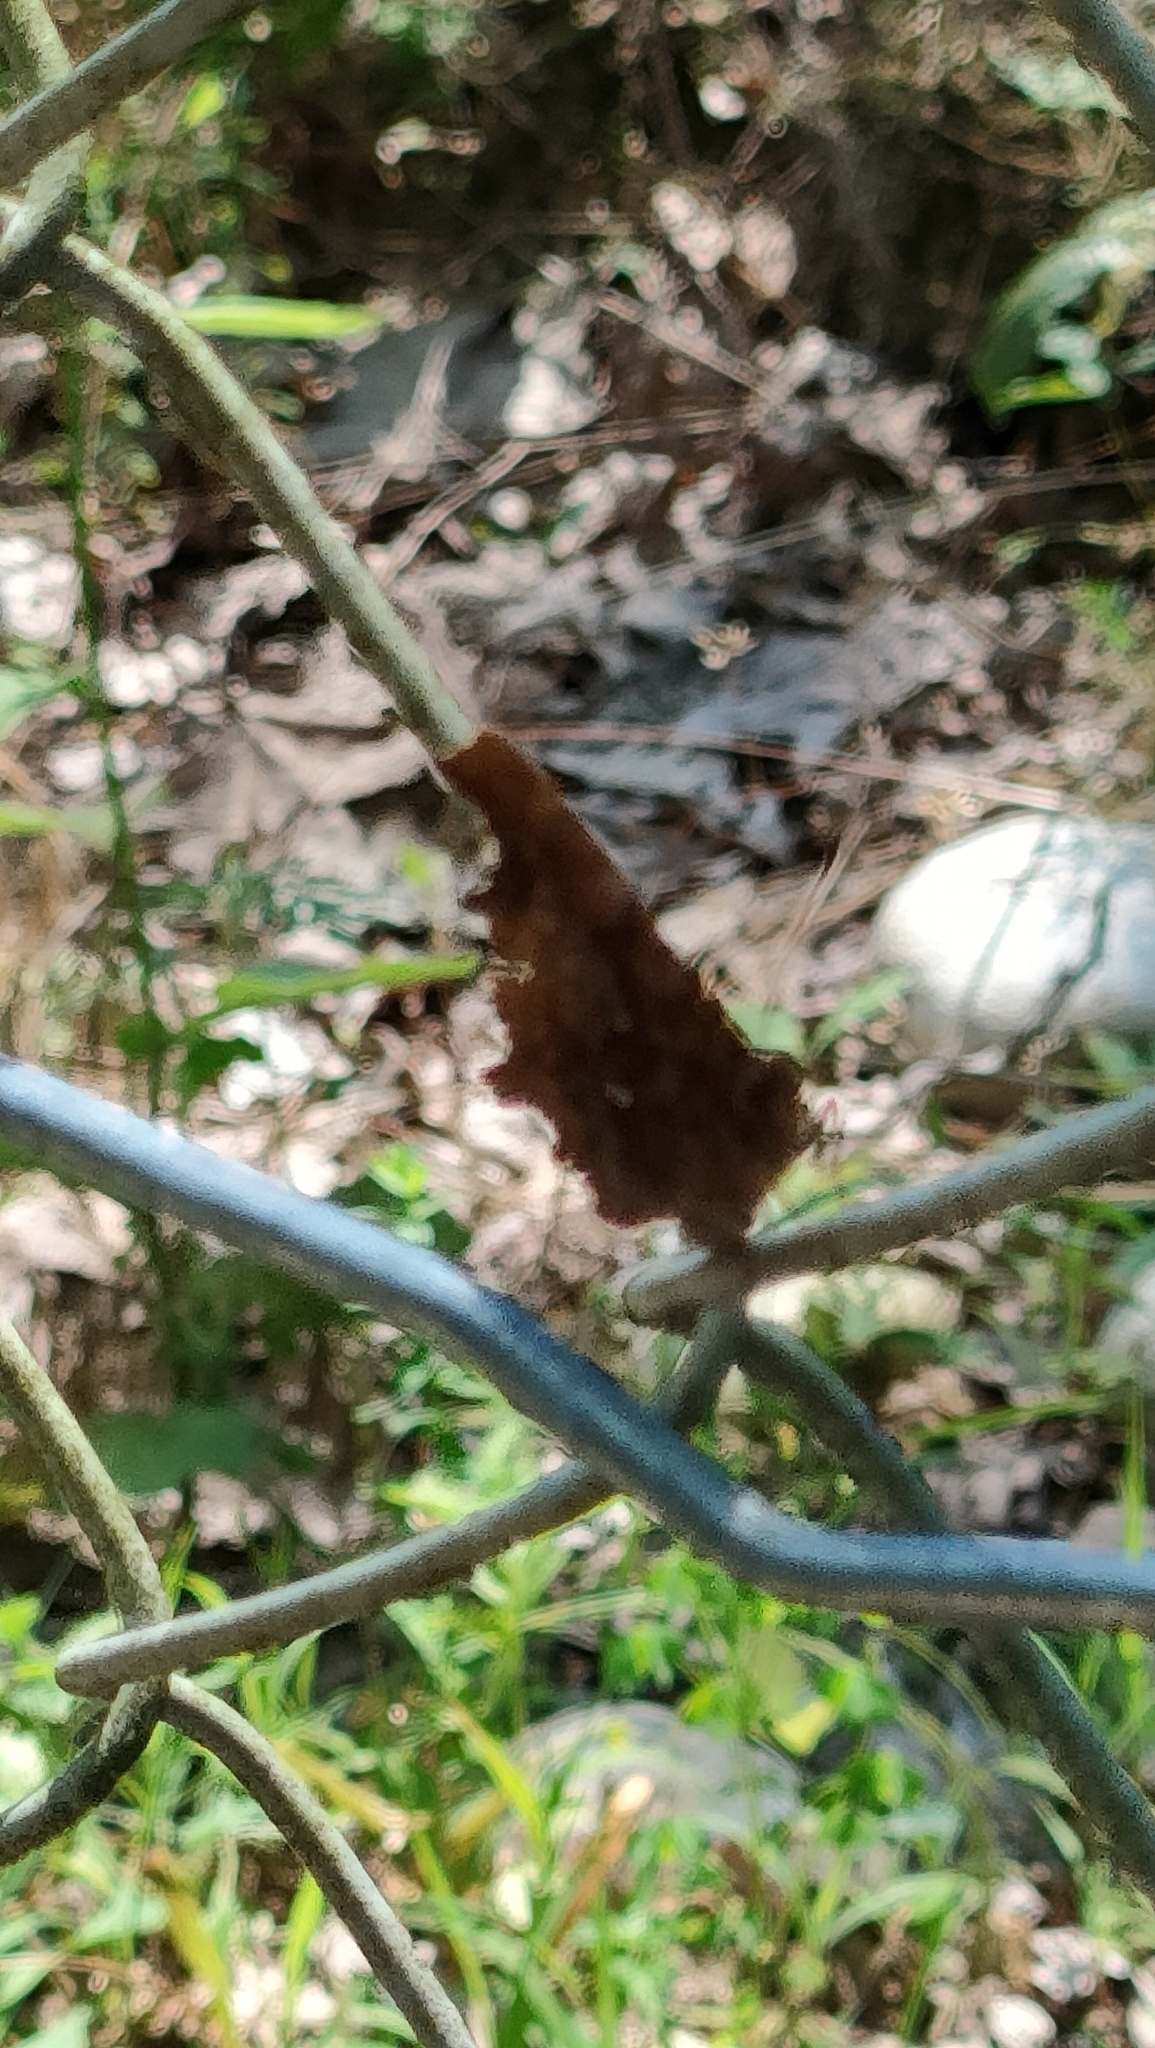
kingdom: Animalia
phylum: Arthropoda
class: Insecta
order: Lepidoptera
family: Nymphalidae
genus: Polygonia
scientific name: Polygonia c-album
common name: Comma
